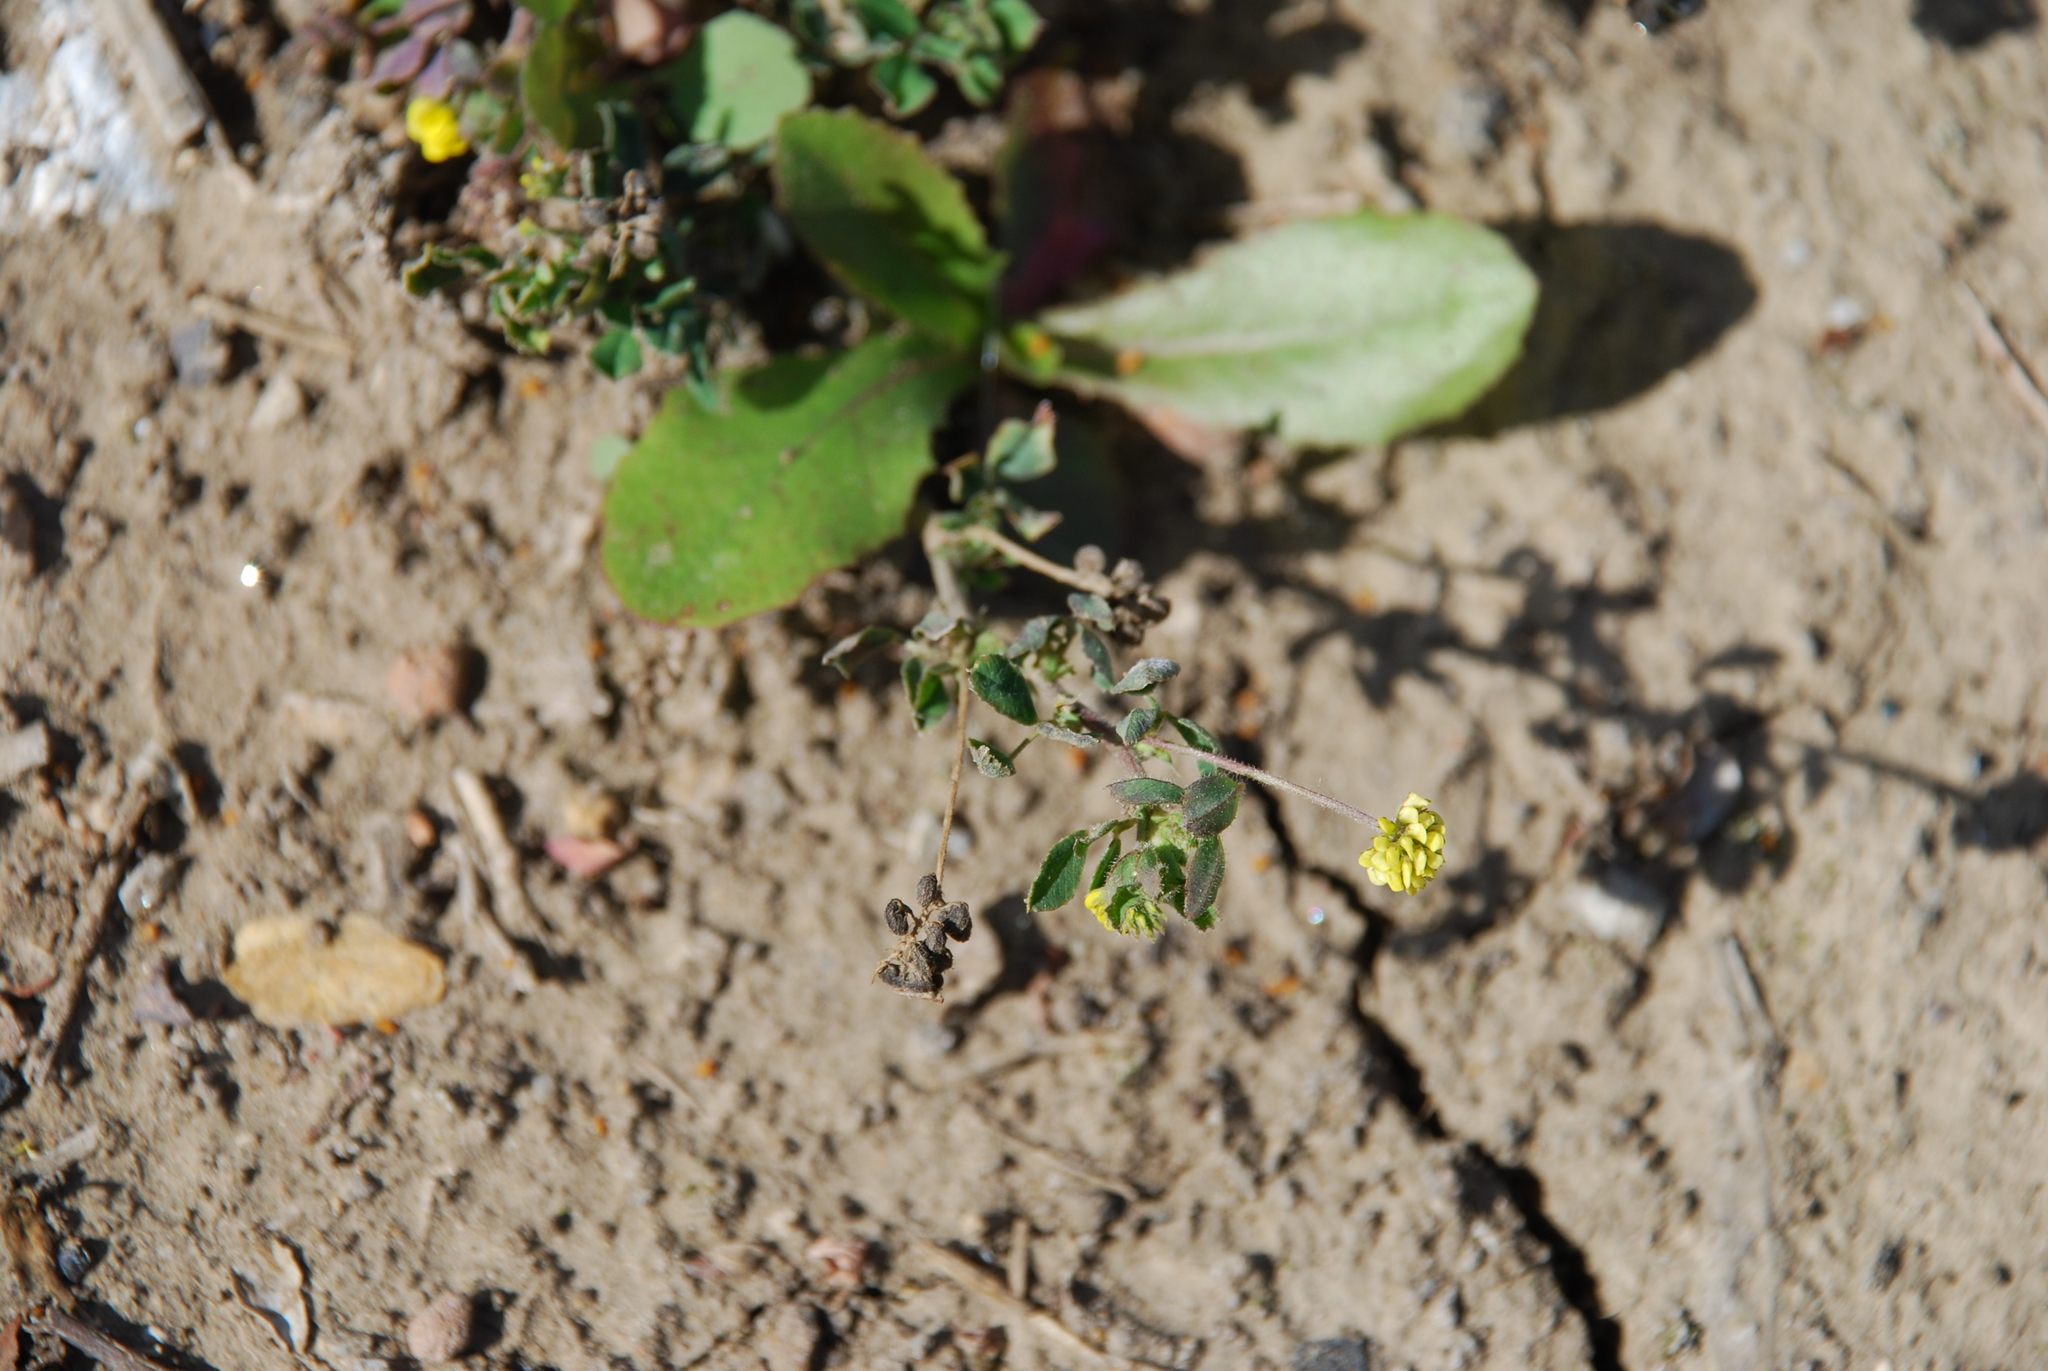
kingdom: Plantae
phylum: Tracheophyta
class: Magnoliopsida
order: Fabales
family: Fabaceae
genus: Medicago
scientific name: Medicago lupulina
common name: Black medick
